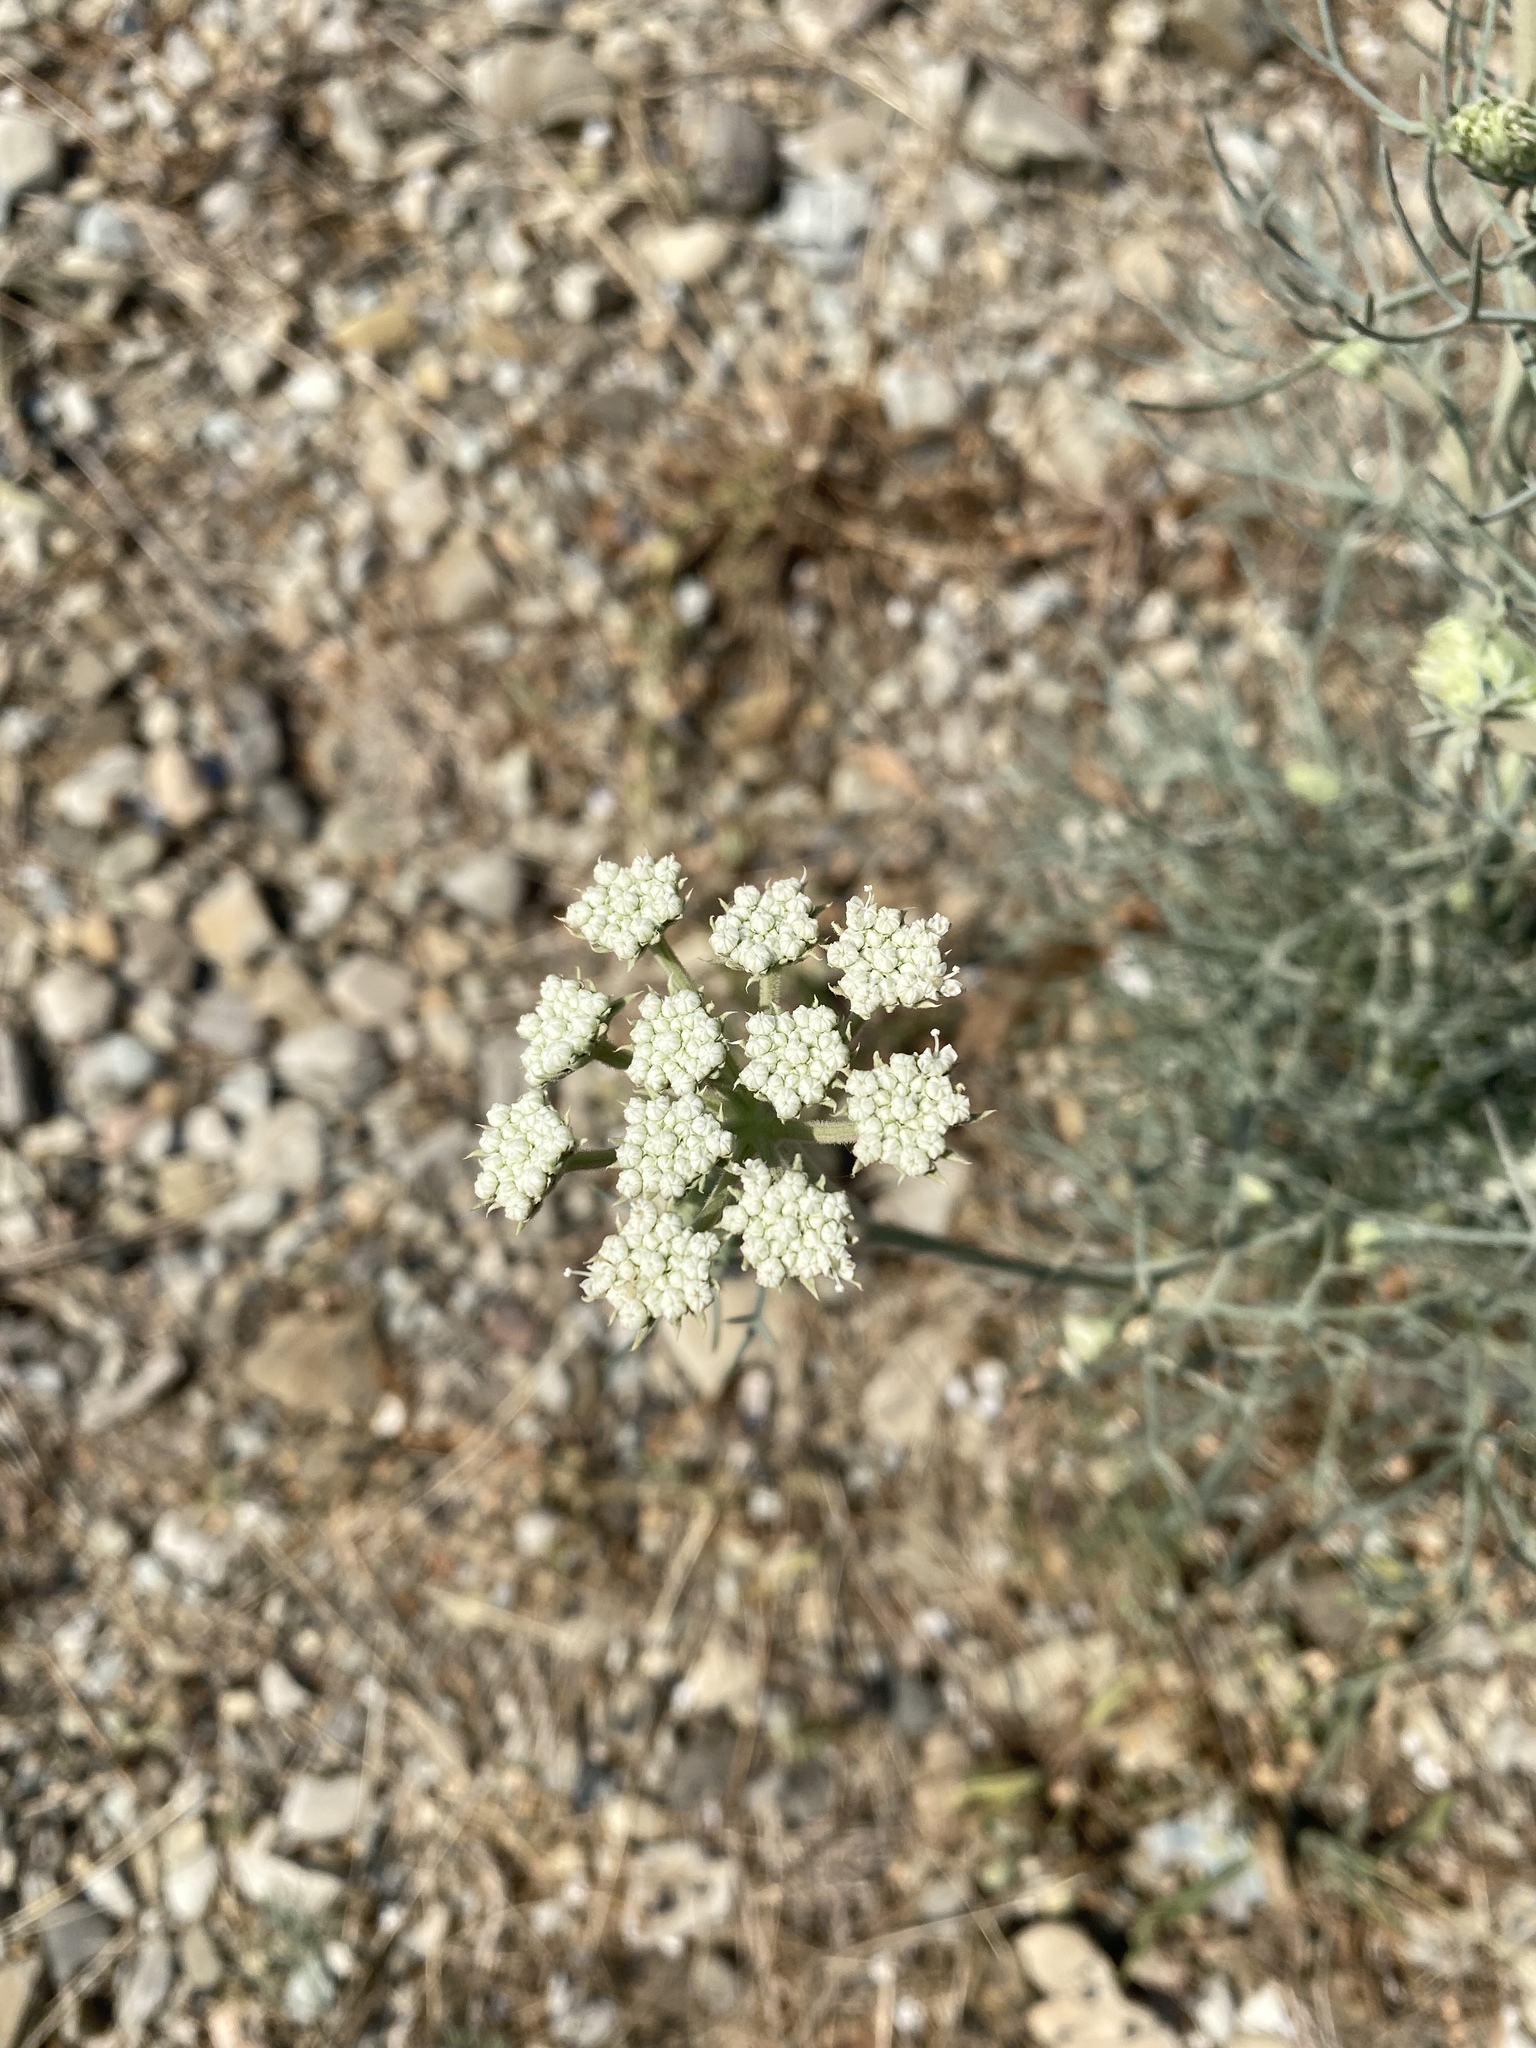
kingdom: Plantae
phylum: Tracheophyta
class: Magnoliopsida
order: Apiales
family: Apiaceae
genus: Seseli
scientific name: Seseli ponticum
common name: Pontic seseli
